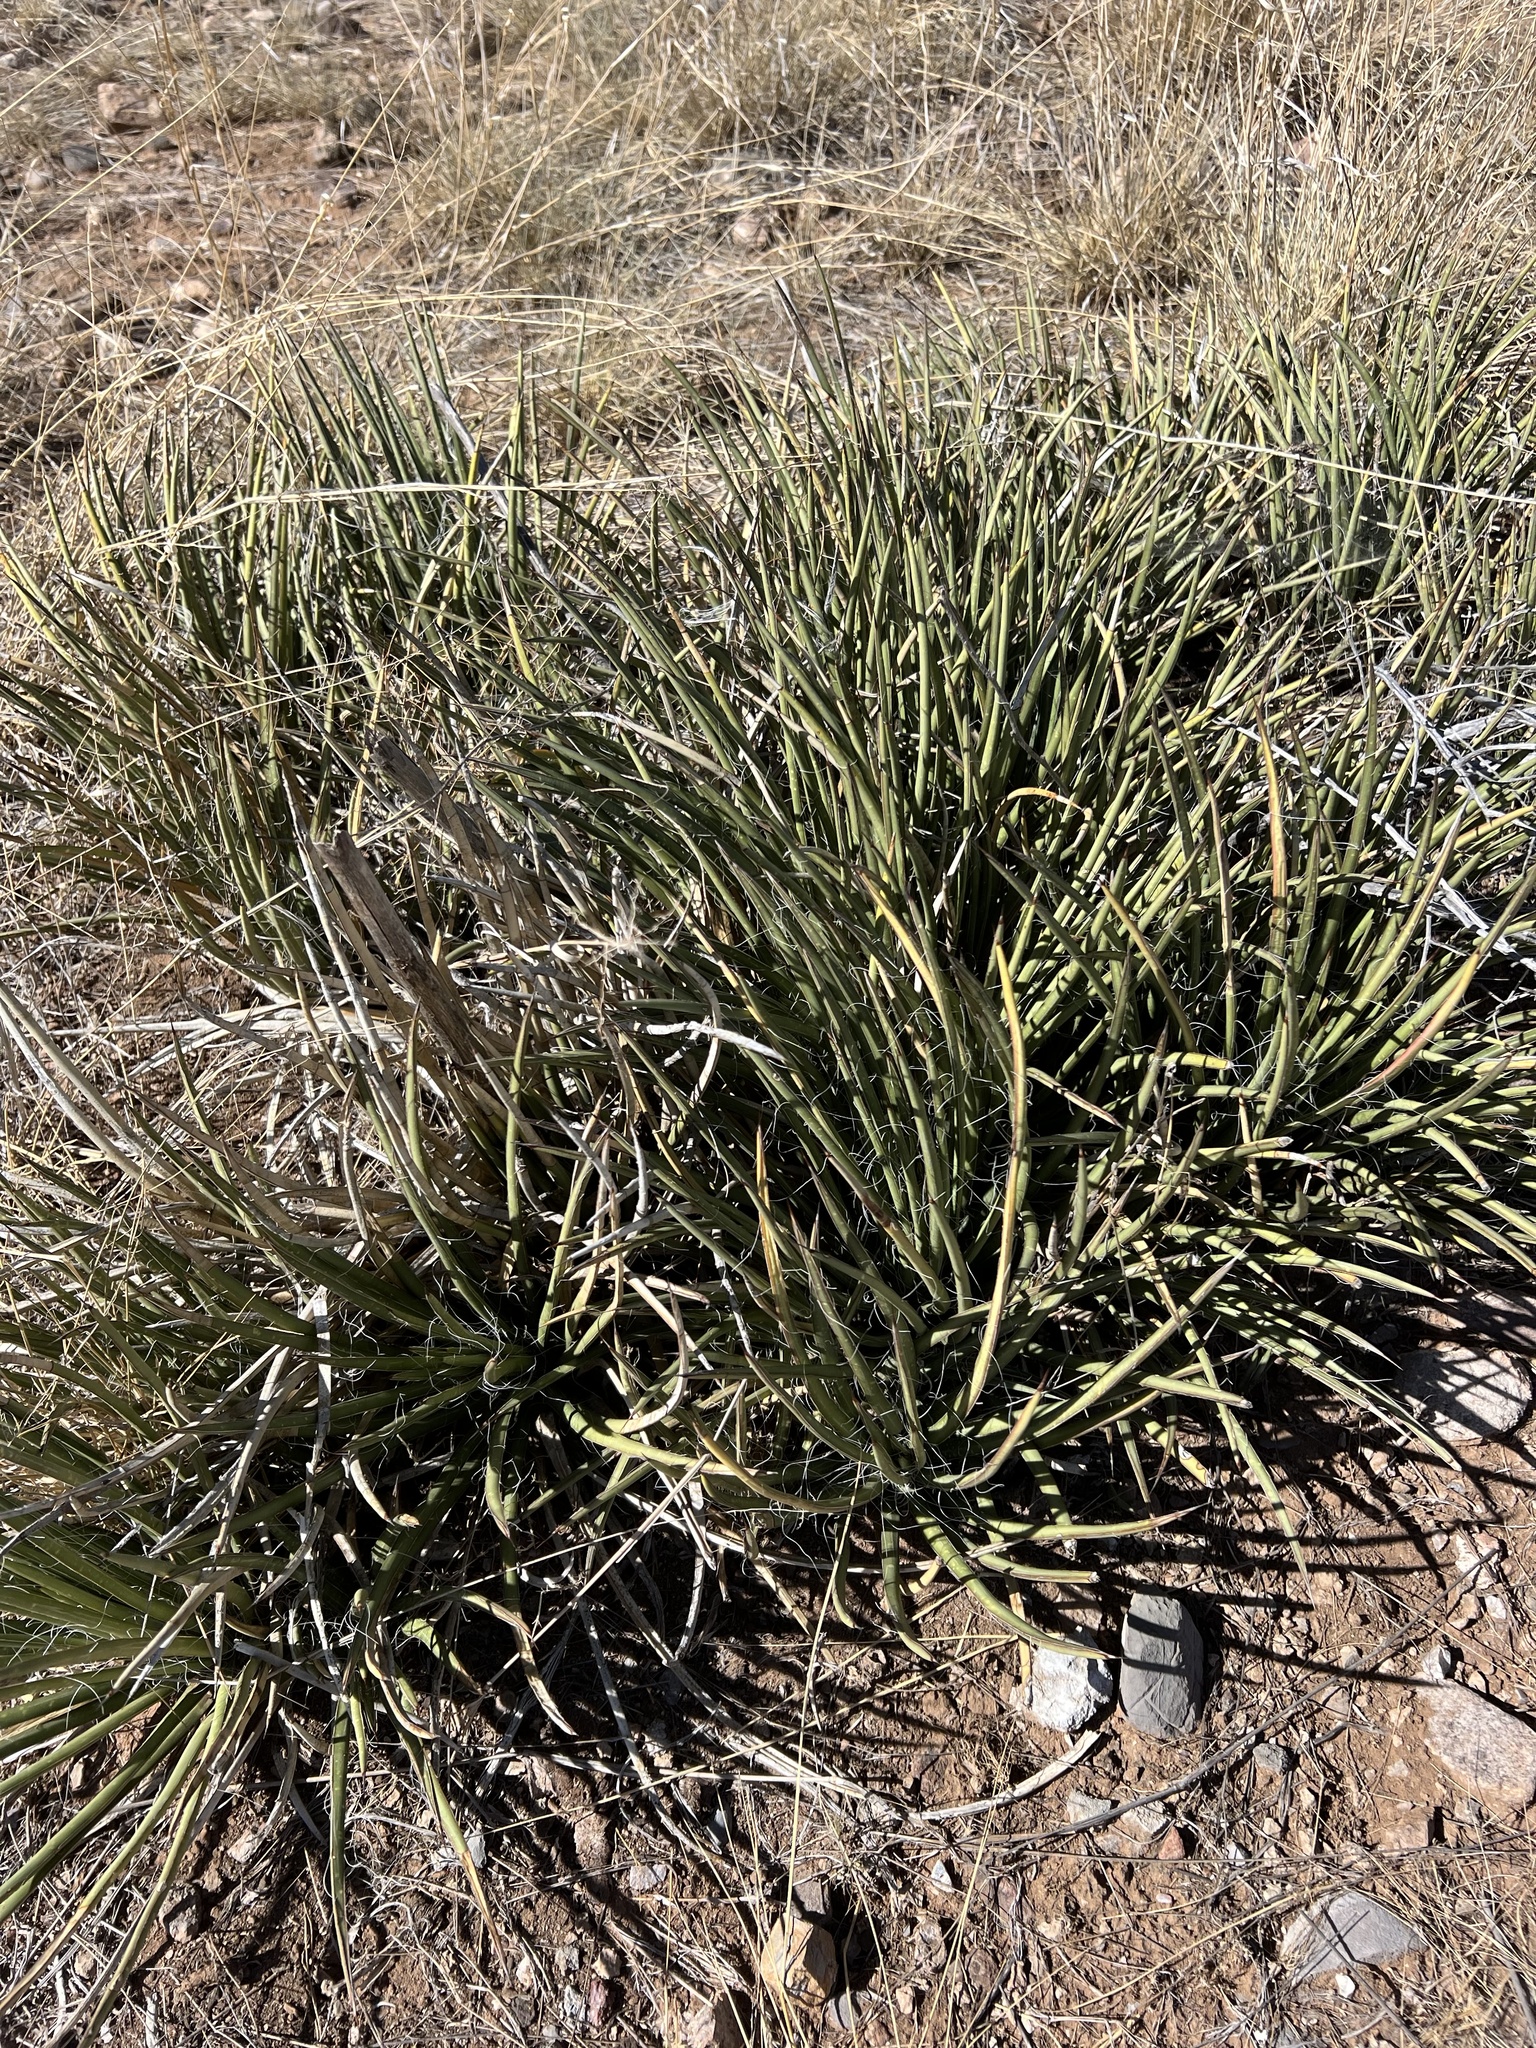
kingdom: Plantae
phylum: Tracheophyta
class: Liliopsida
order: Asparagales
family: Asparagaceae
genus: Agave
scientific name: Agave schottii
